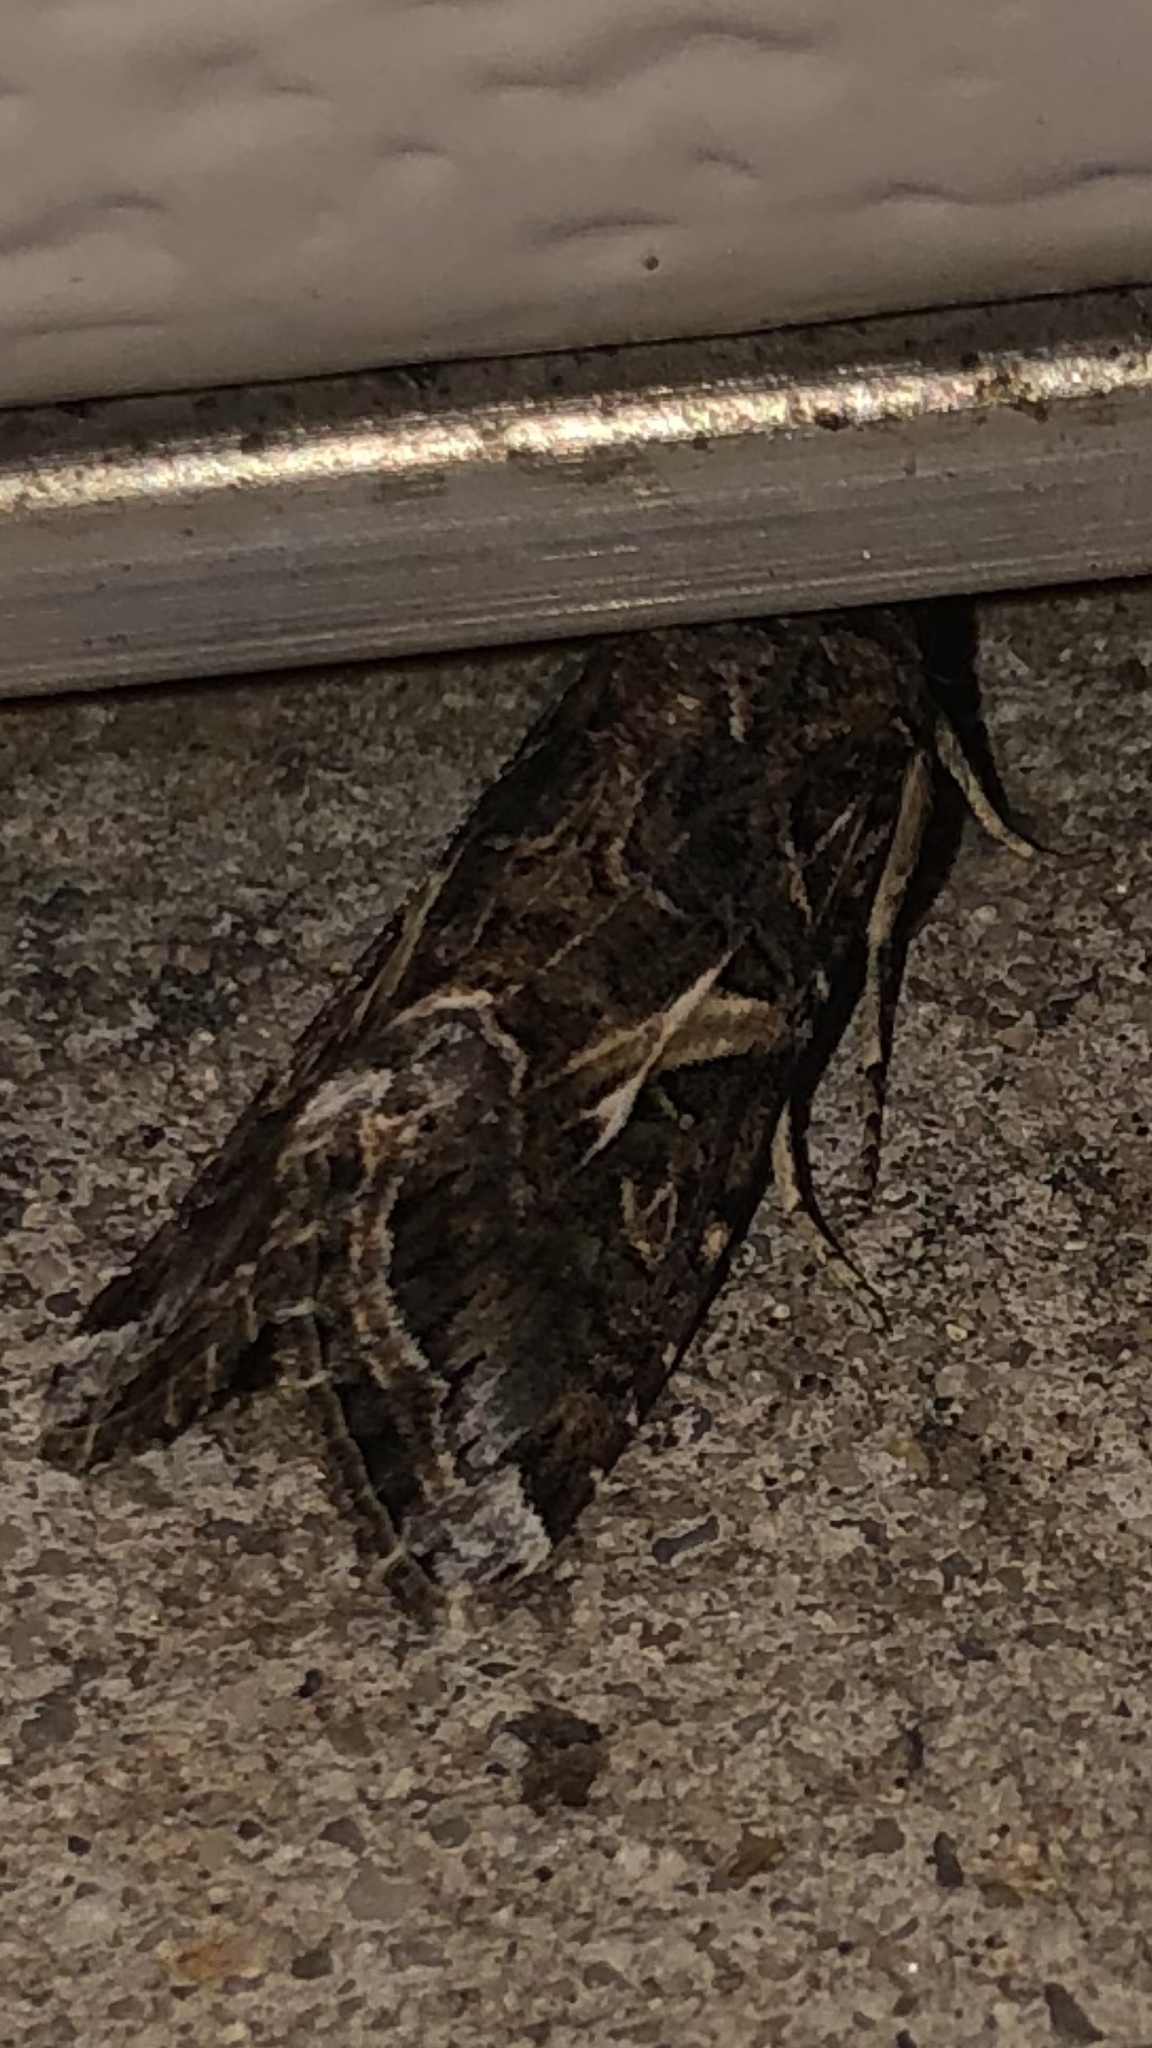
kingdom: Animalia
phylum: Arthropoda
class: Insecta
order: Lepidoptera
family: Noctuidae
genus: Spodoptera
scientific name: Spodoptera ornithogalli
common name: Yellow-striped armyworm
